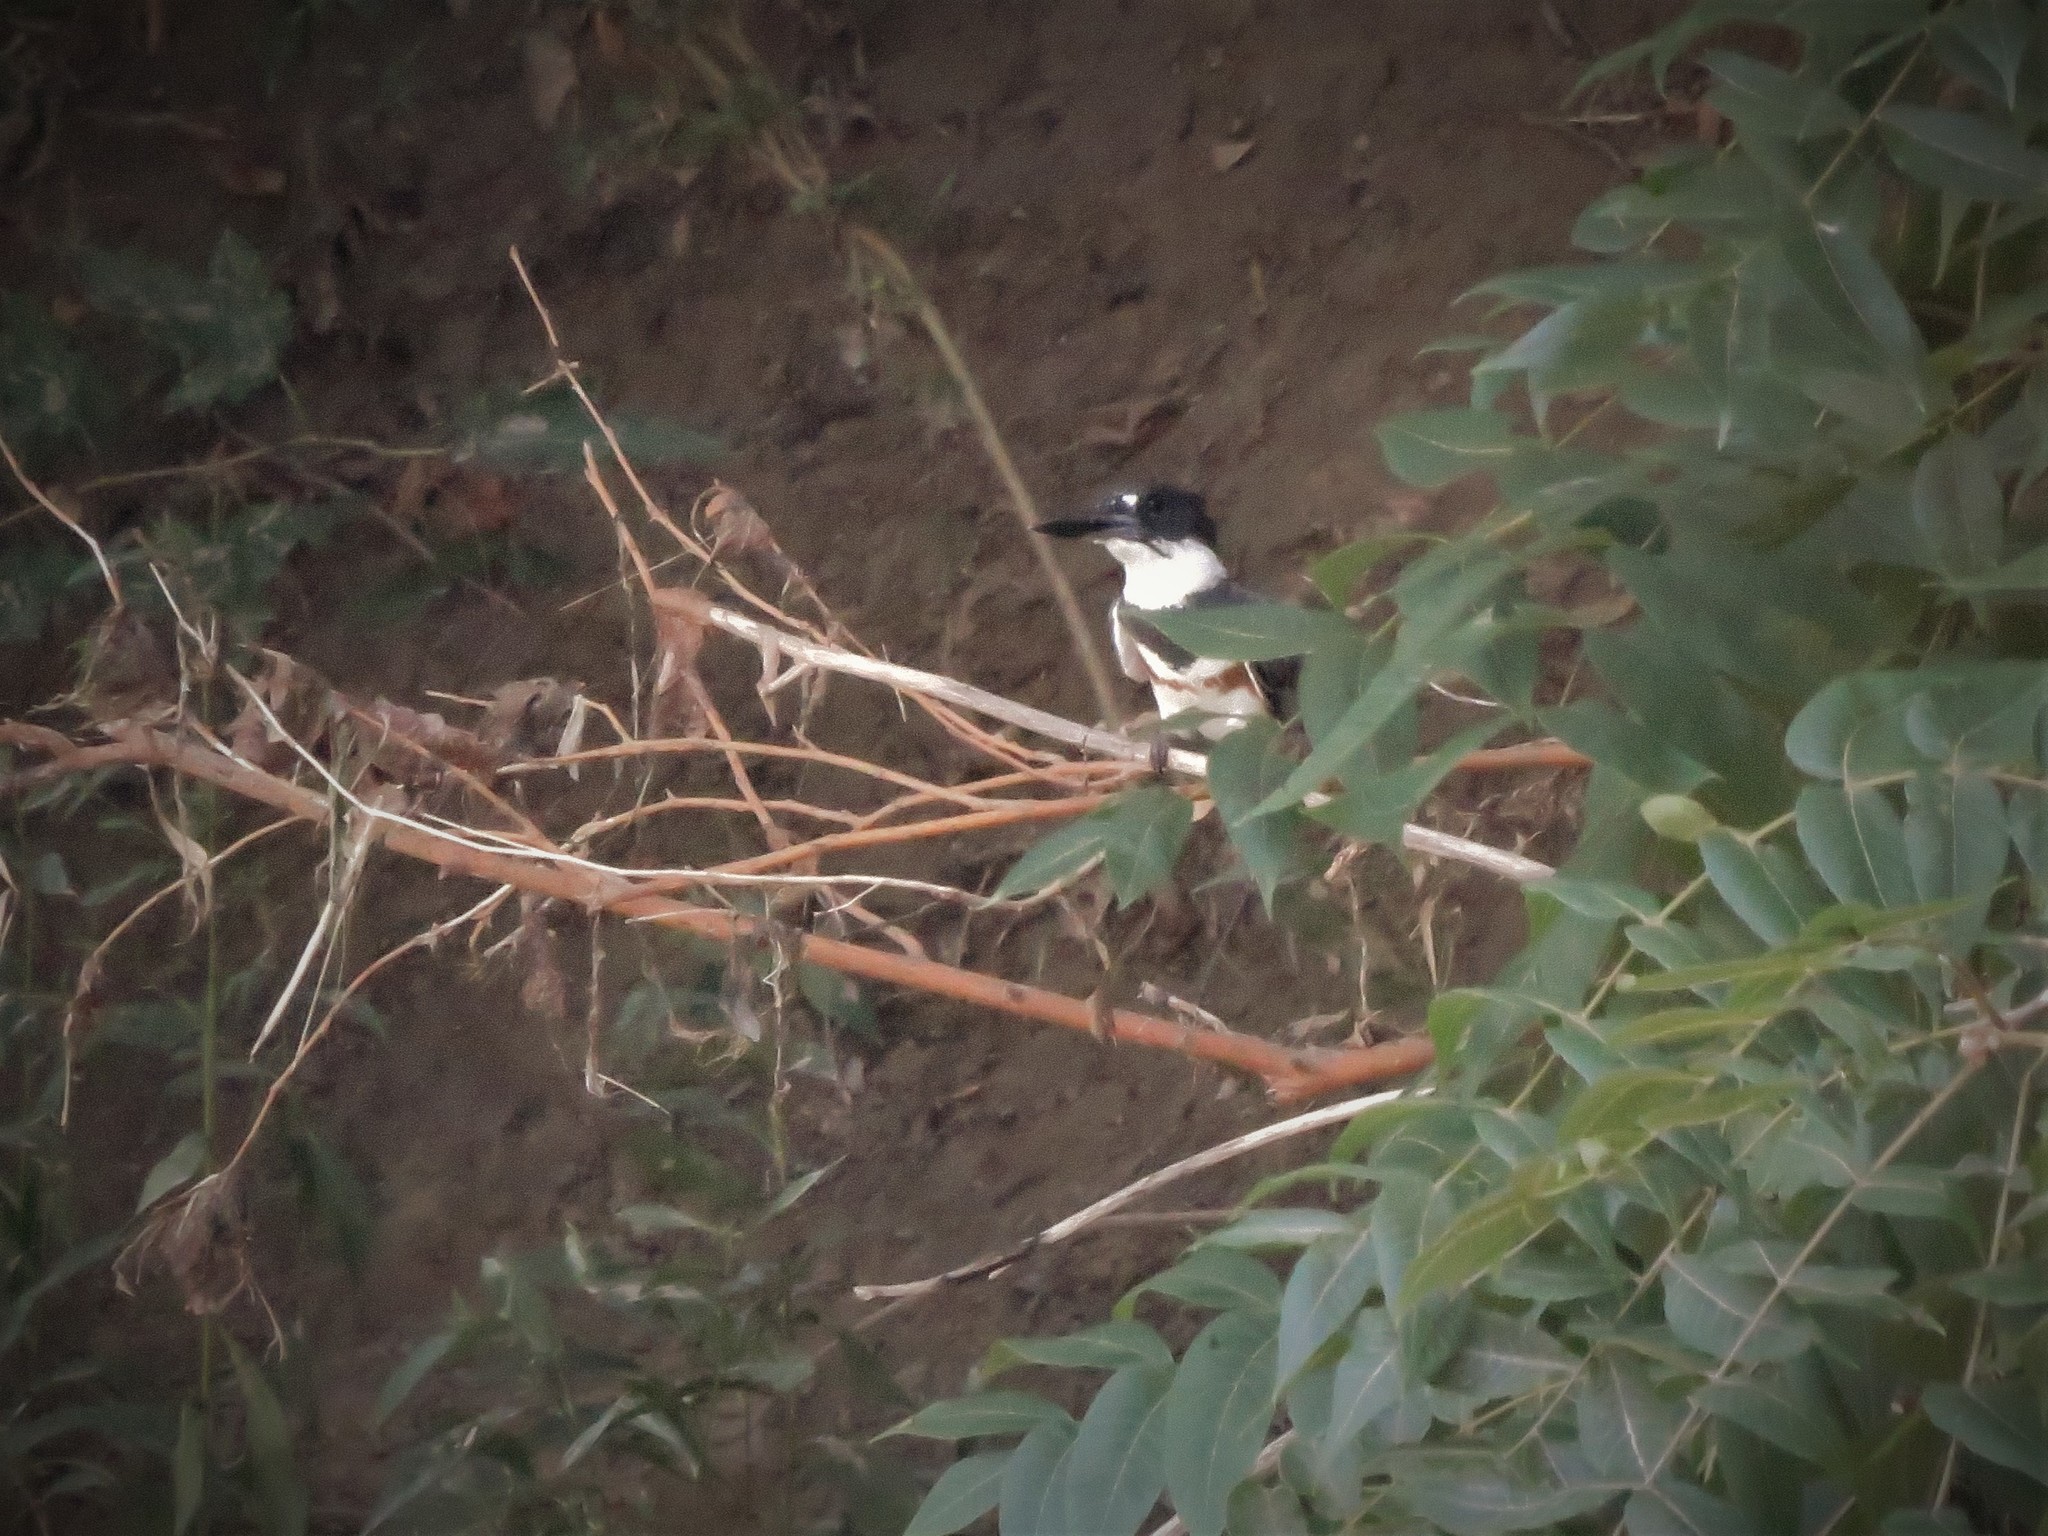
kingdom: Animalia
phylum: Chordata
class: Aves
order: Coraciiformes
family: Alcedinidae
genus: Megaceryle
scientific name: Megaceryle alcyon
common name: Belted kingfisher
